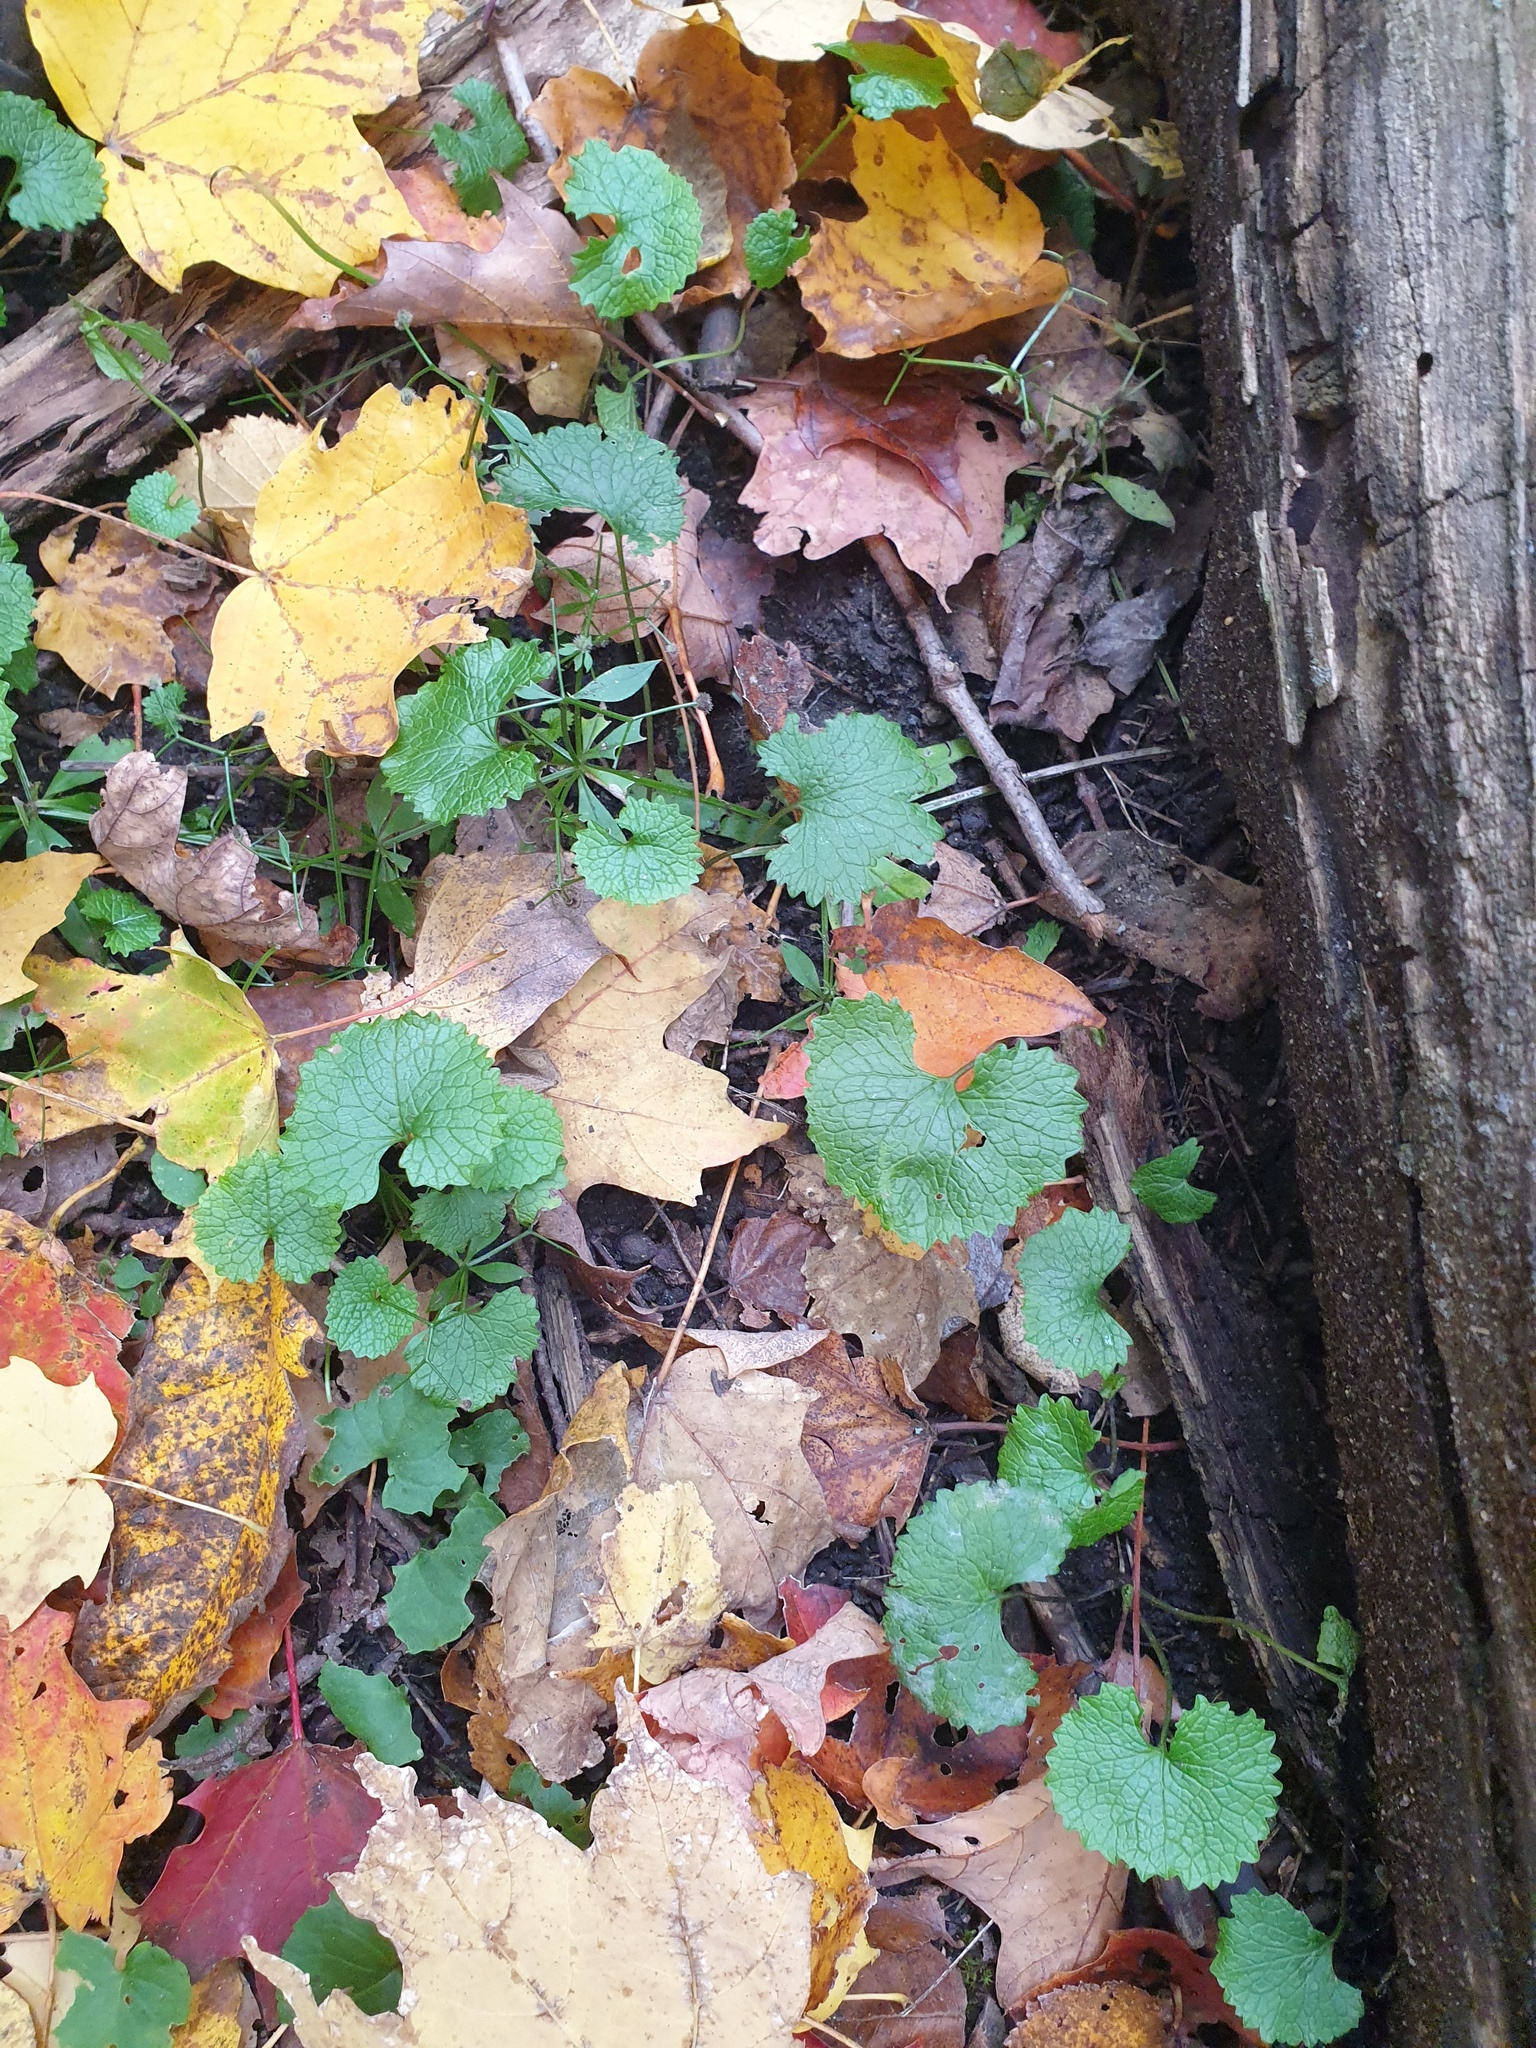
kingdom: Plantae
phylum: Tracheophyta
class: Magnoliopsida
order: Brassicales
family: Brassicaceae
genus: Alliaria
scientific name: Alliaria petiolata
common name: Garlic mustard
